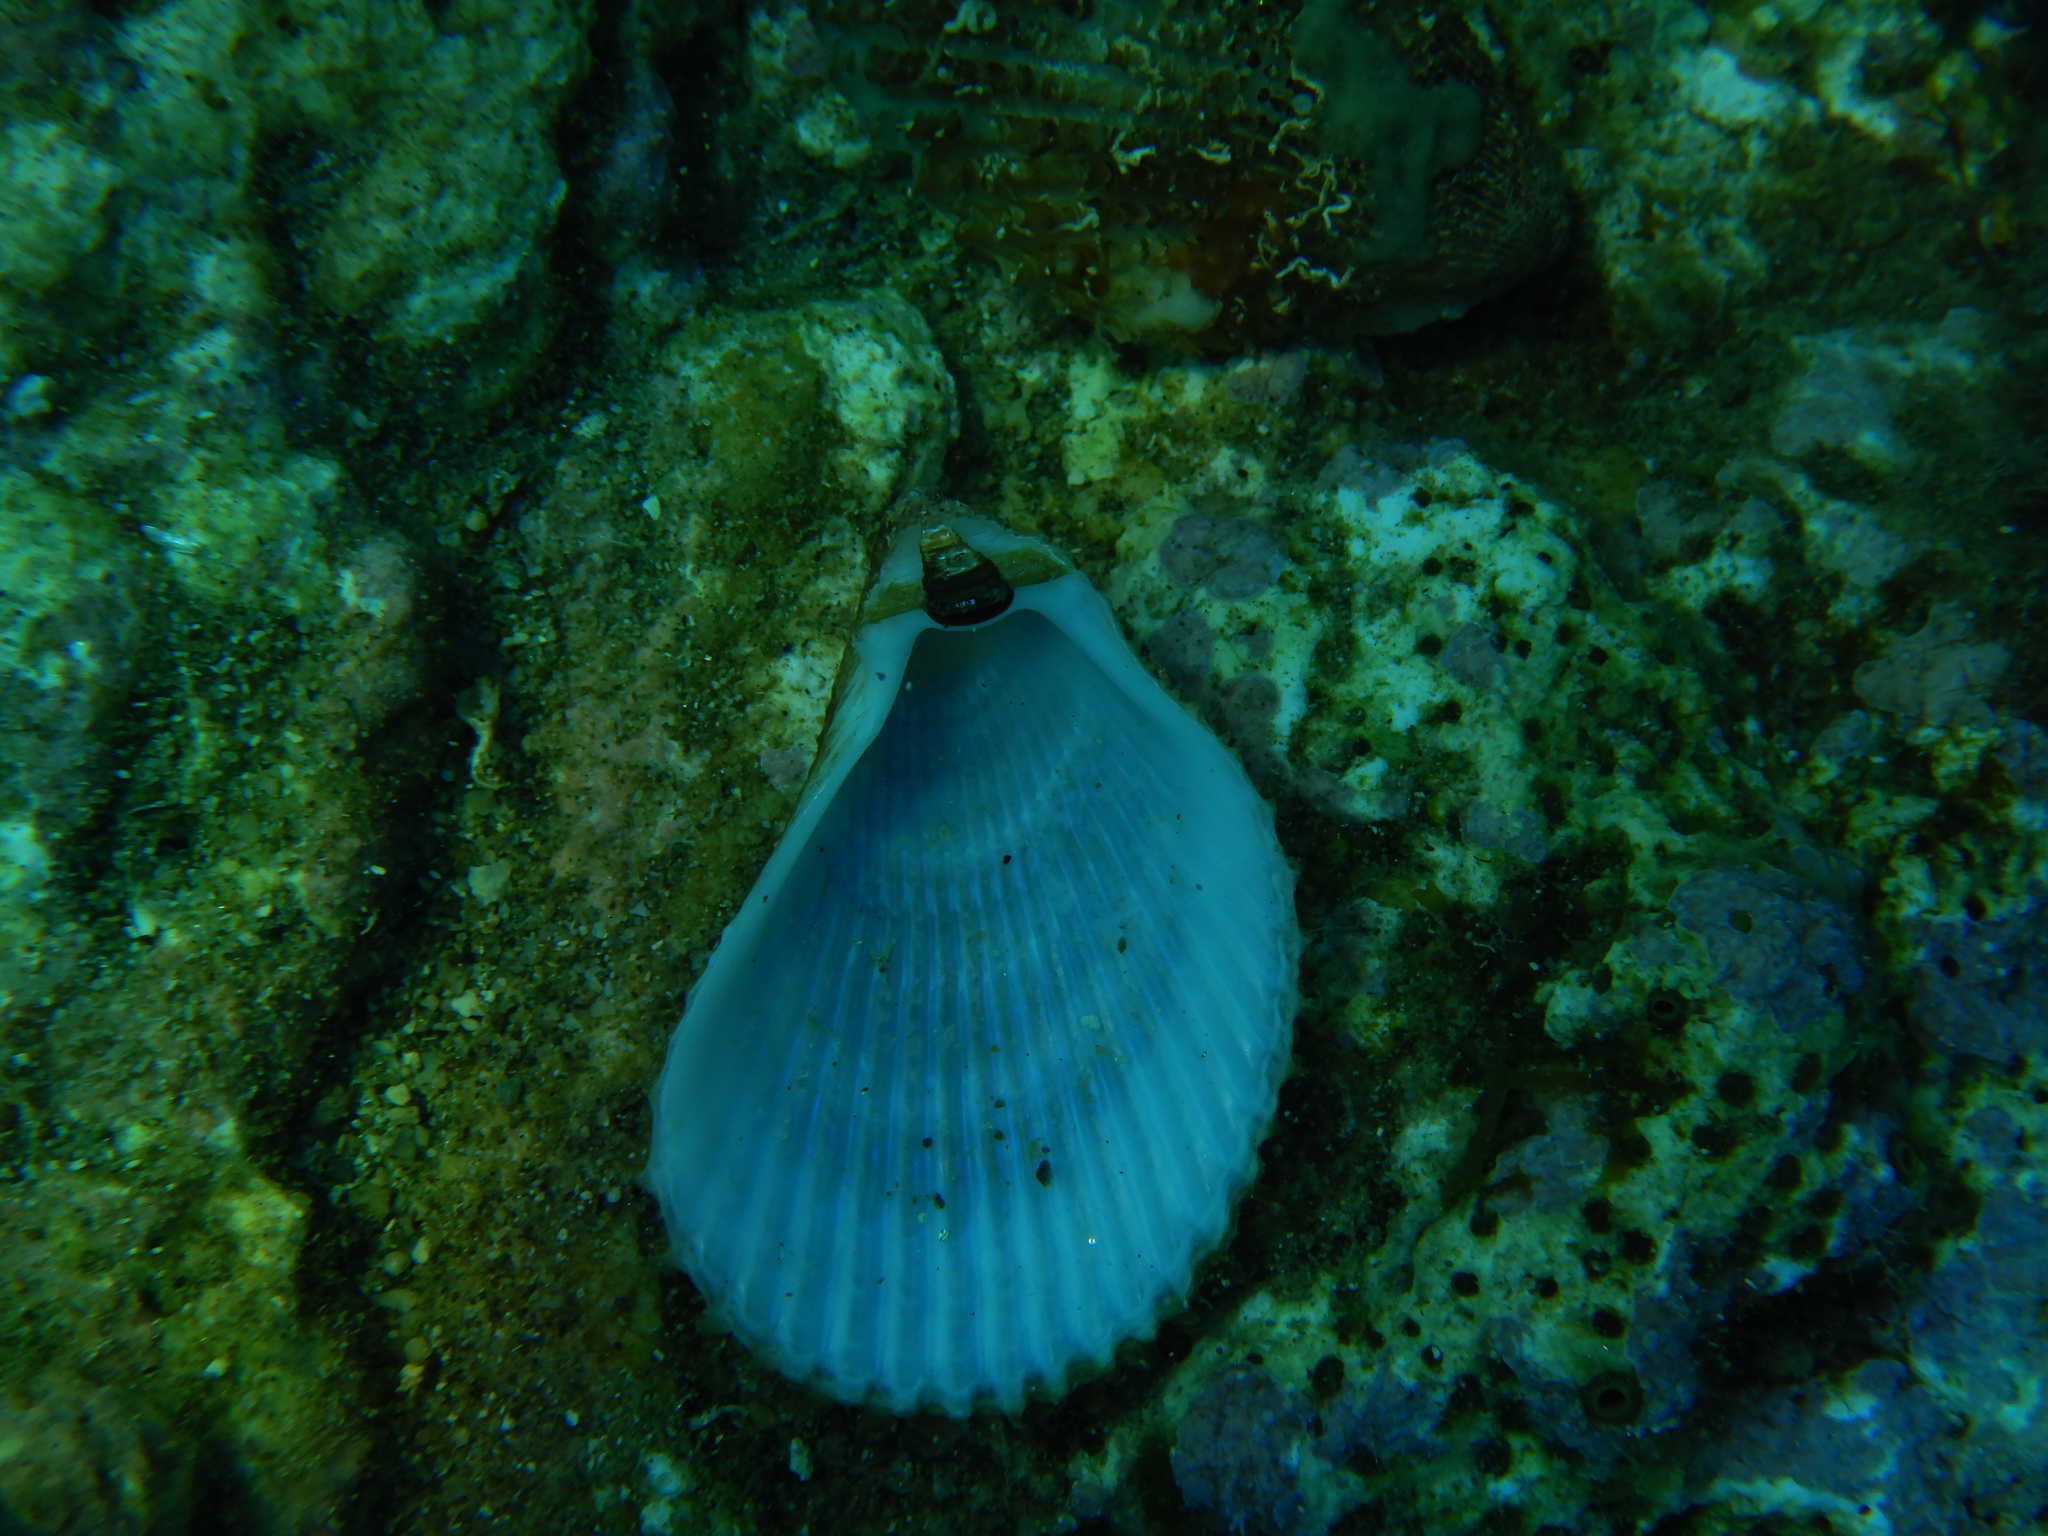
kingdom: Animalia
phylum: Mollusca
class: Bivalvia
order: Limida
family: Limidae
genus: Lima
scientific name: Lima lima
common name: Frilled file shell
